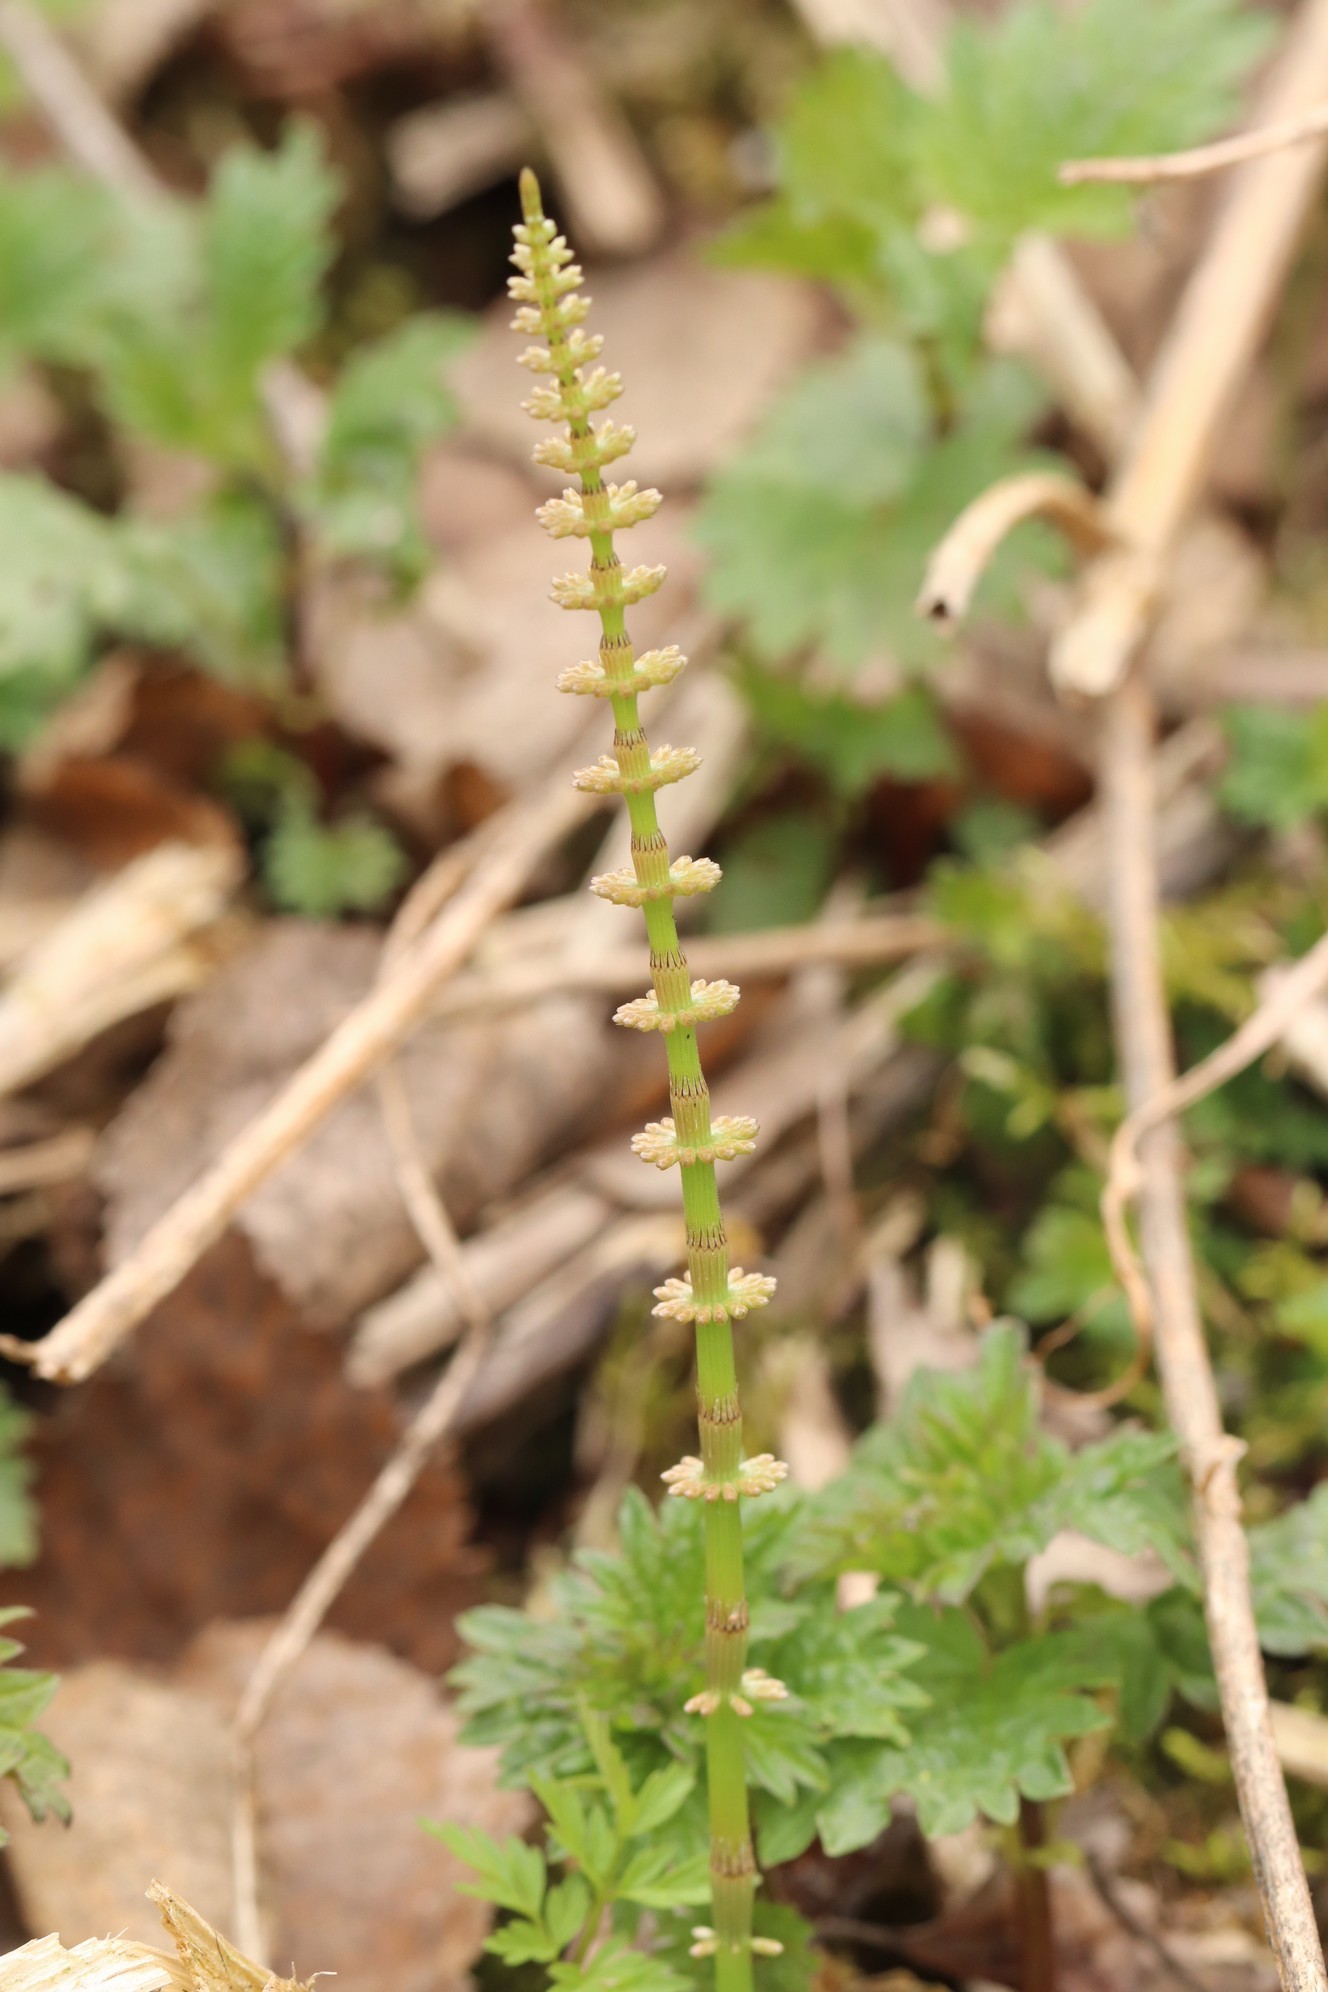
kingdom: Plantae
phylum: Tracheophyta
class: Polypodiopsida
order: Equisetales
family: Equisetaceae
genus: Equisetum
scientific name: Equisetum pratense
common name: Meadow horsetail
